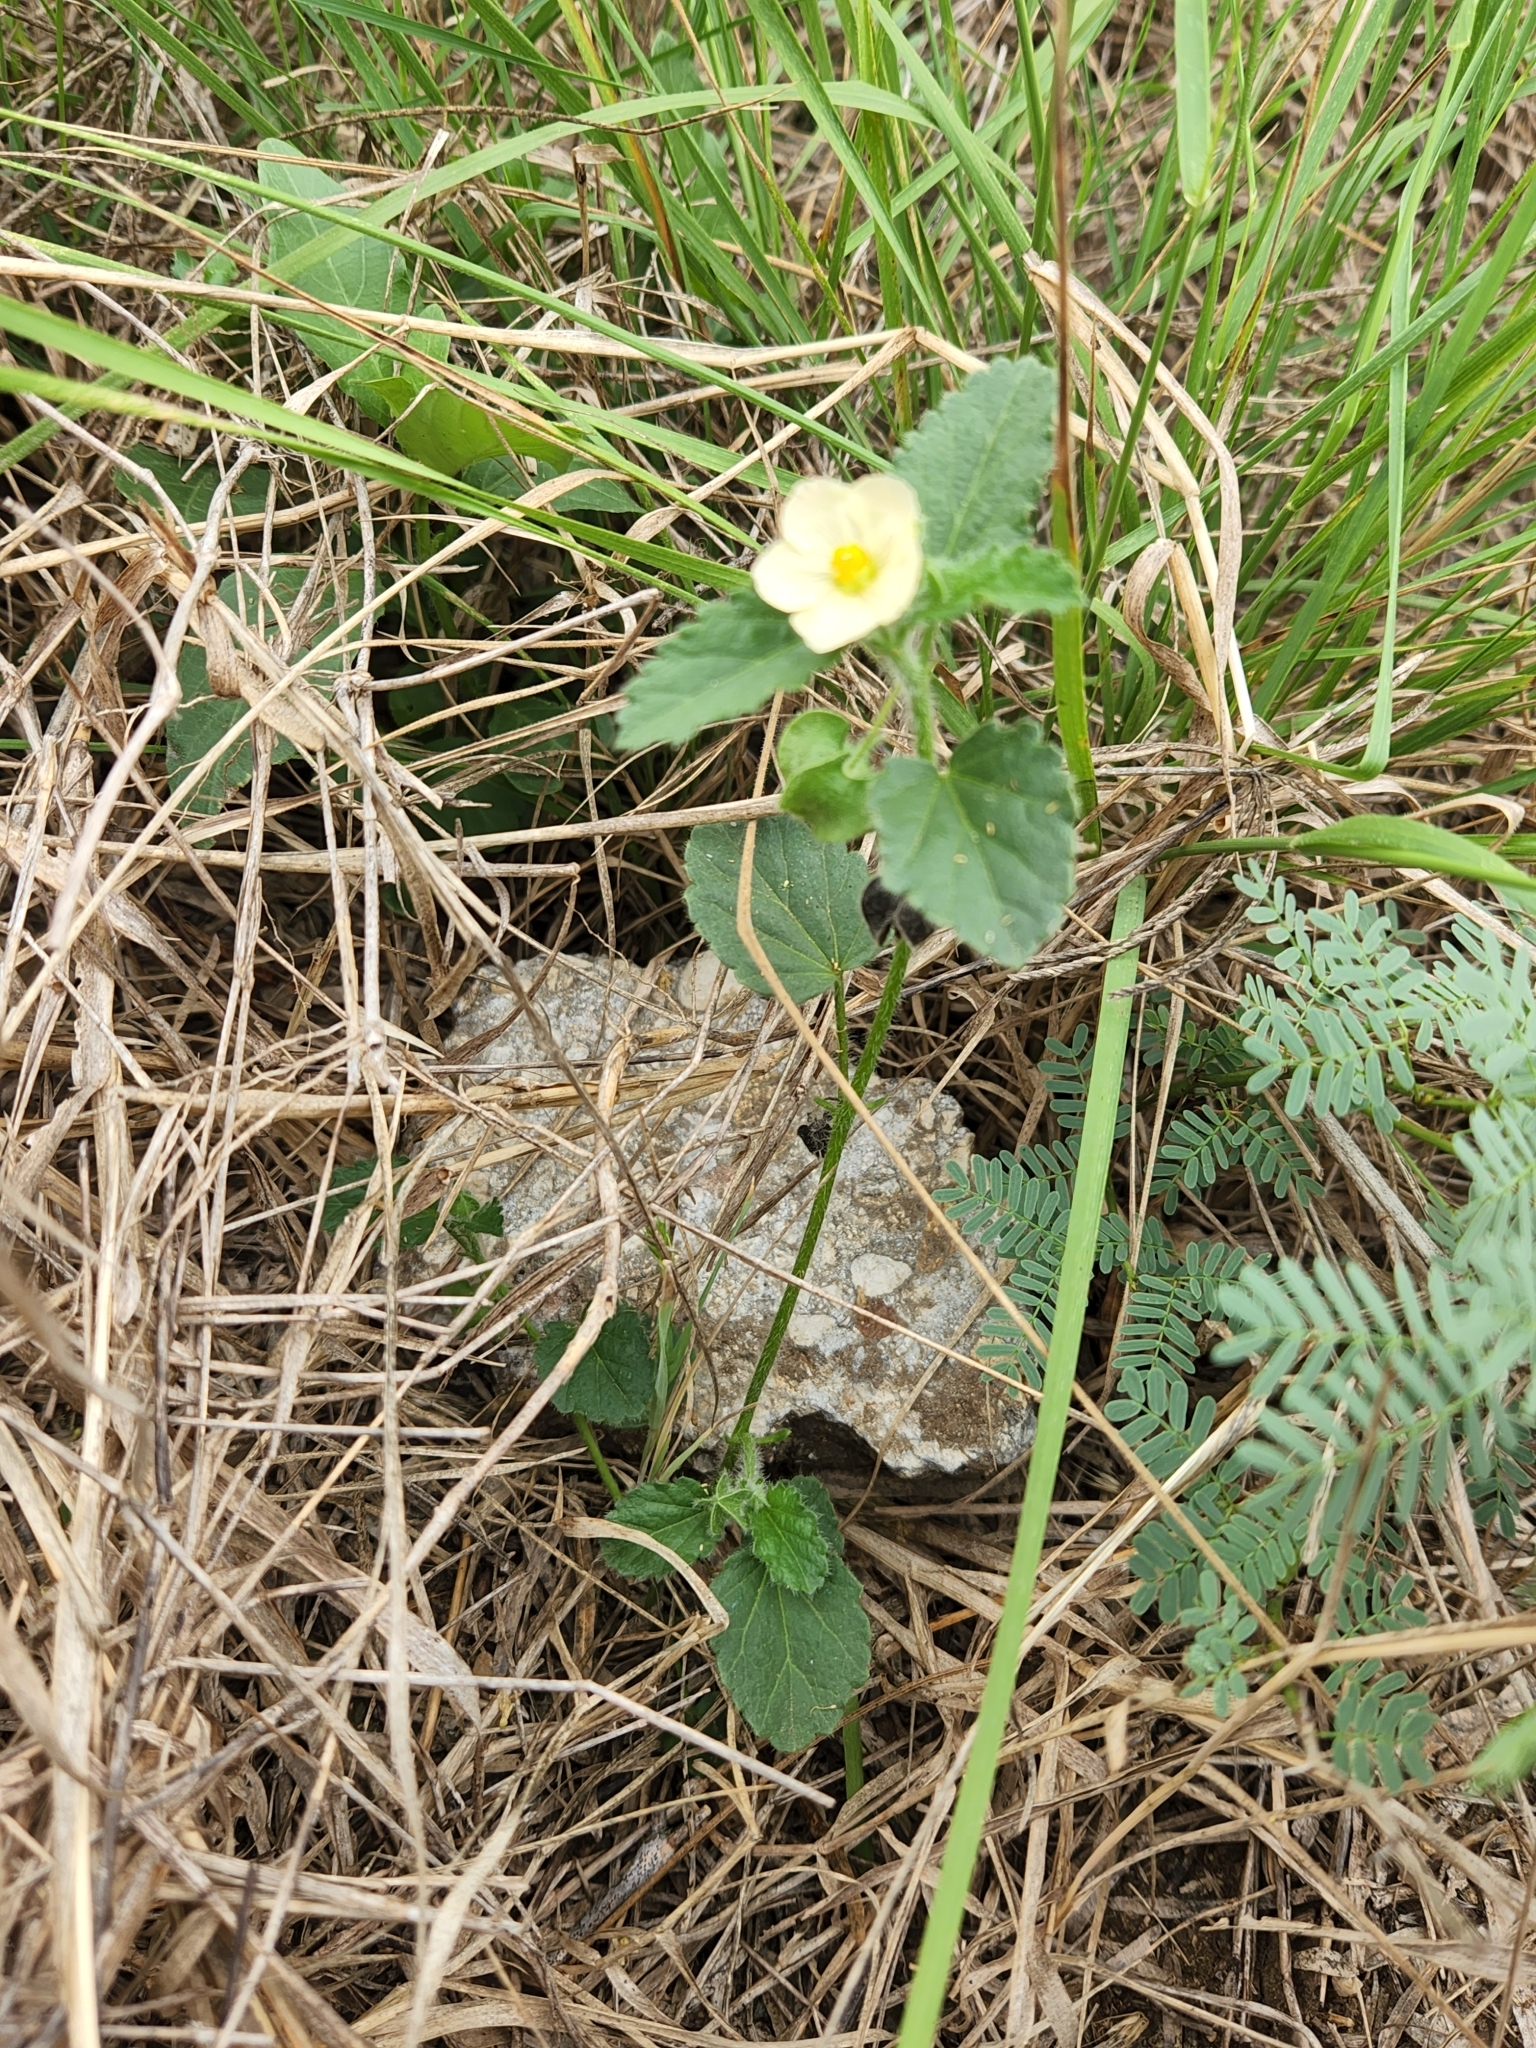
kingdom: Plantae
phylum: Tracheophyta
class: Magnoliopsida
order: Malvales
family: Malvaceae
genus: Rhynchosida
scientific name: Rhynchosida physocalyx
